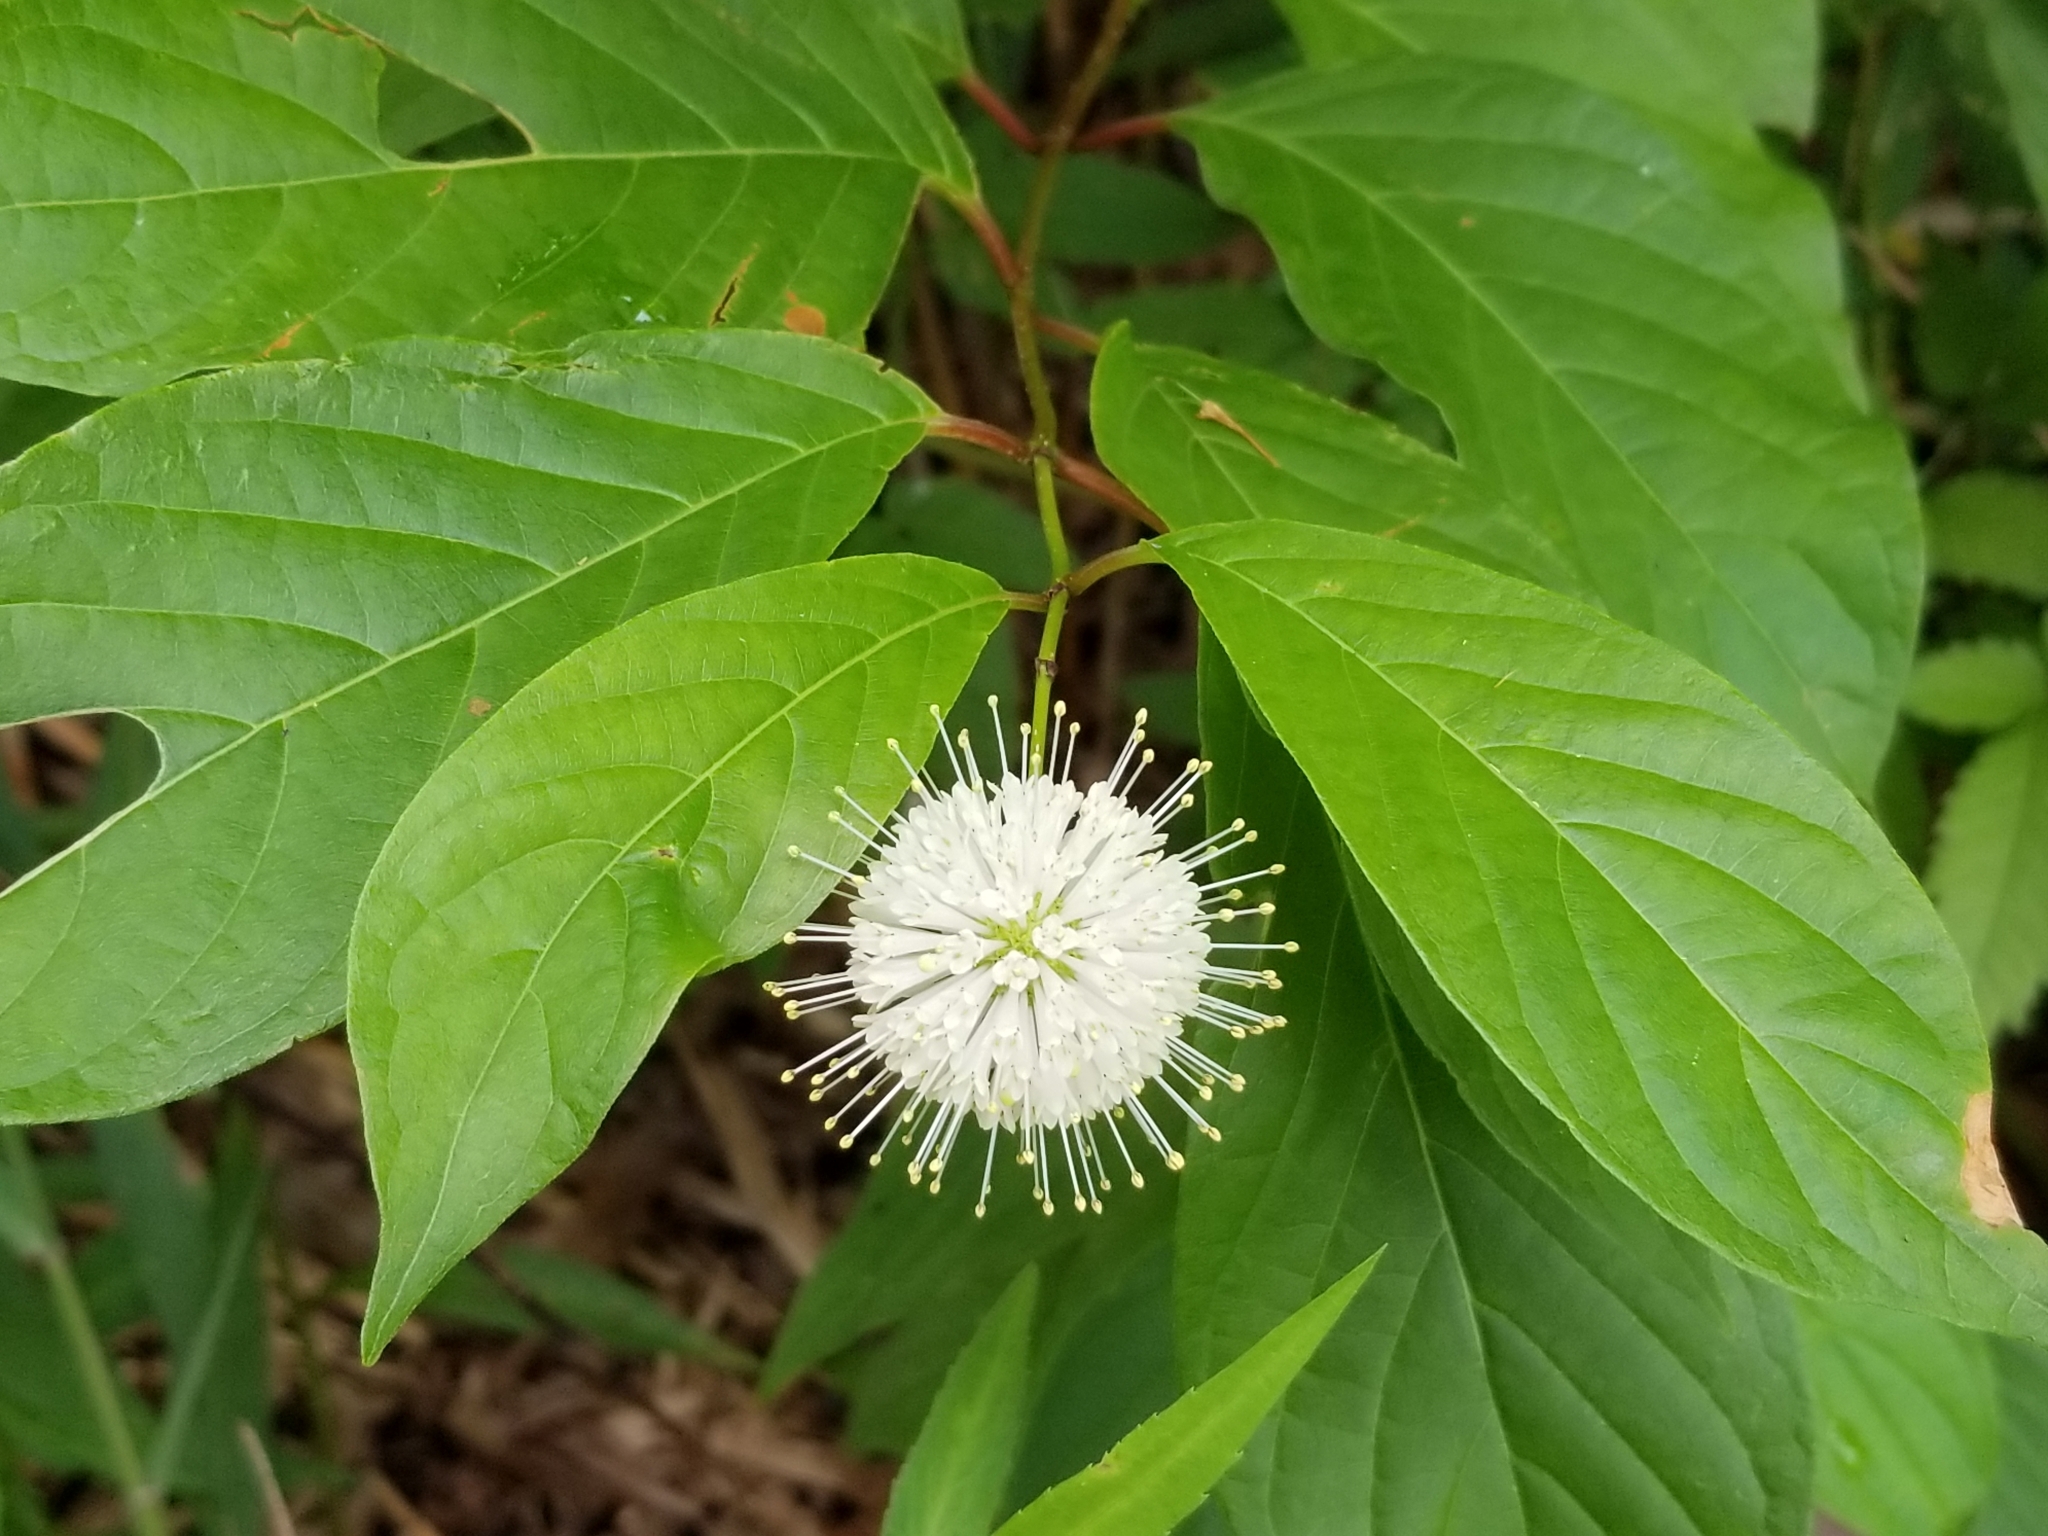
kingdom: Plantae
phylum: Tracheophyta
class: Magnoliopsida
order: Gentianales
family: Rubiaceae
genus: Cephalanthus
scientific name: Cephalanthus occidentalis
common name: Button-willow
